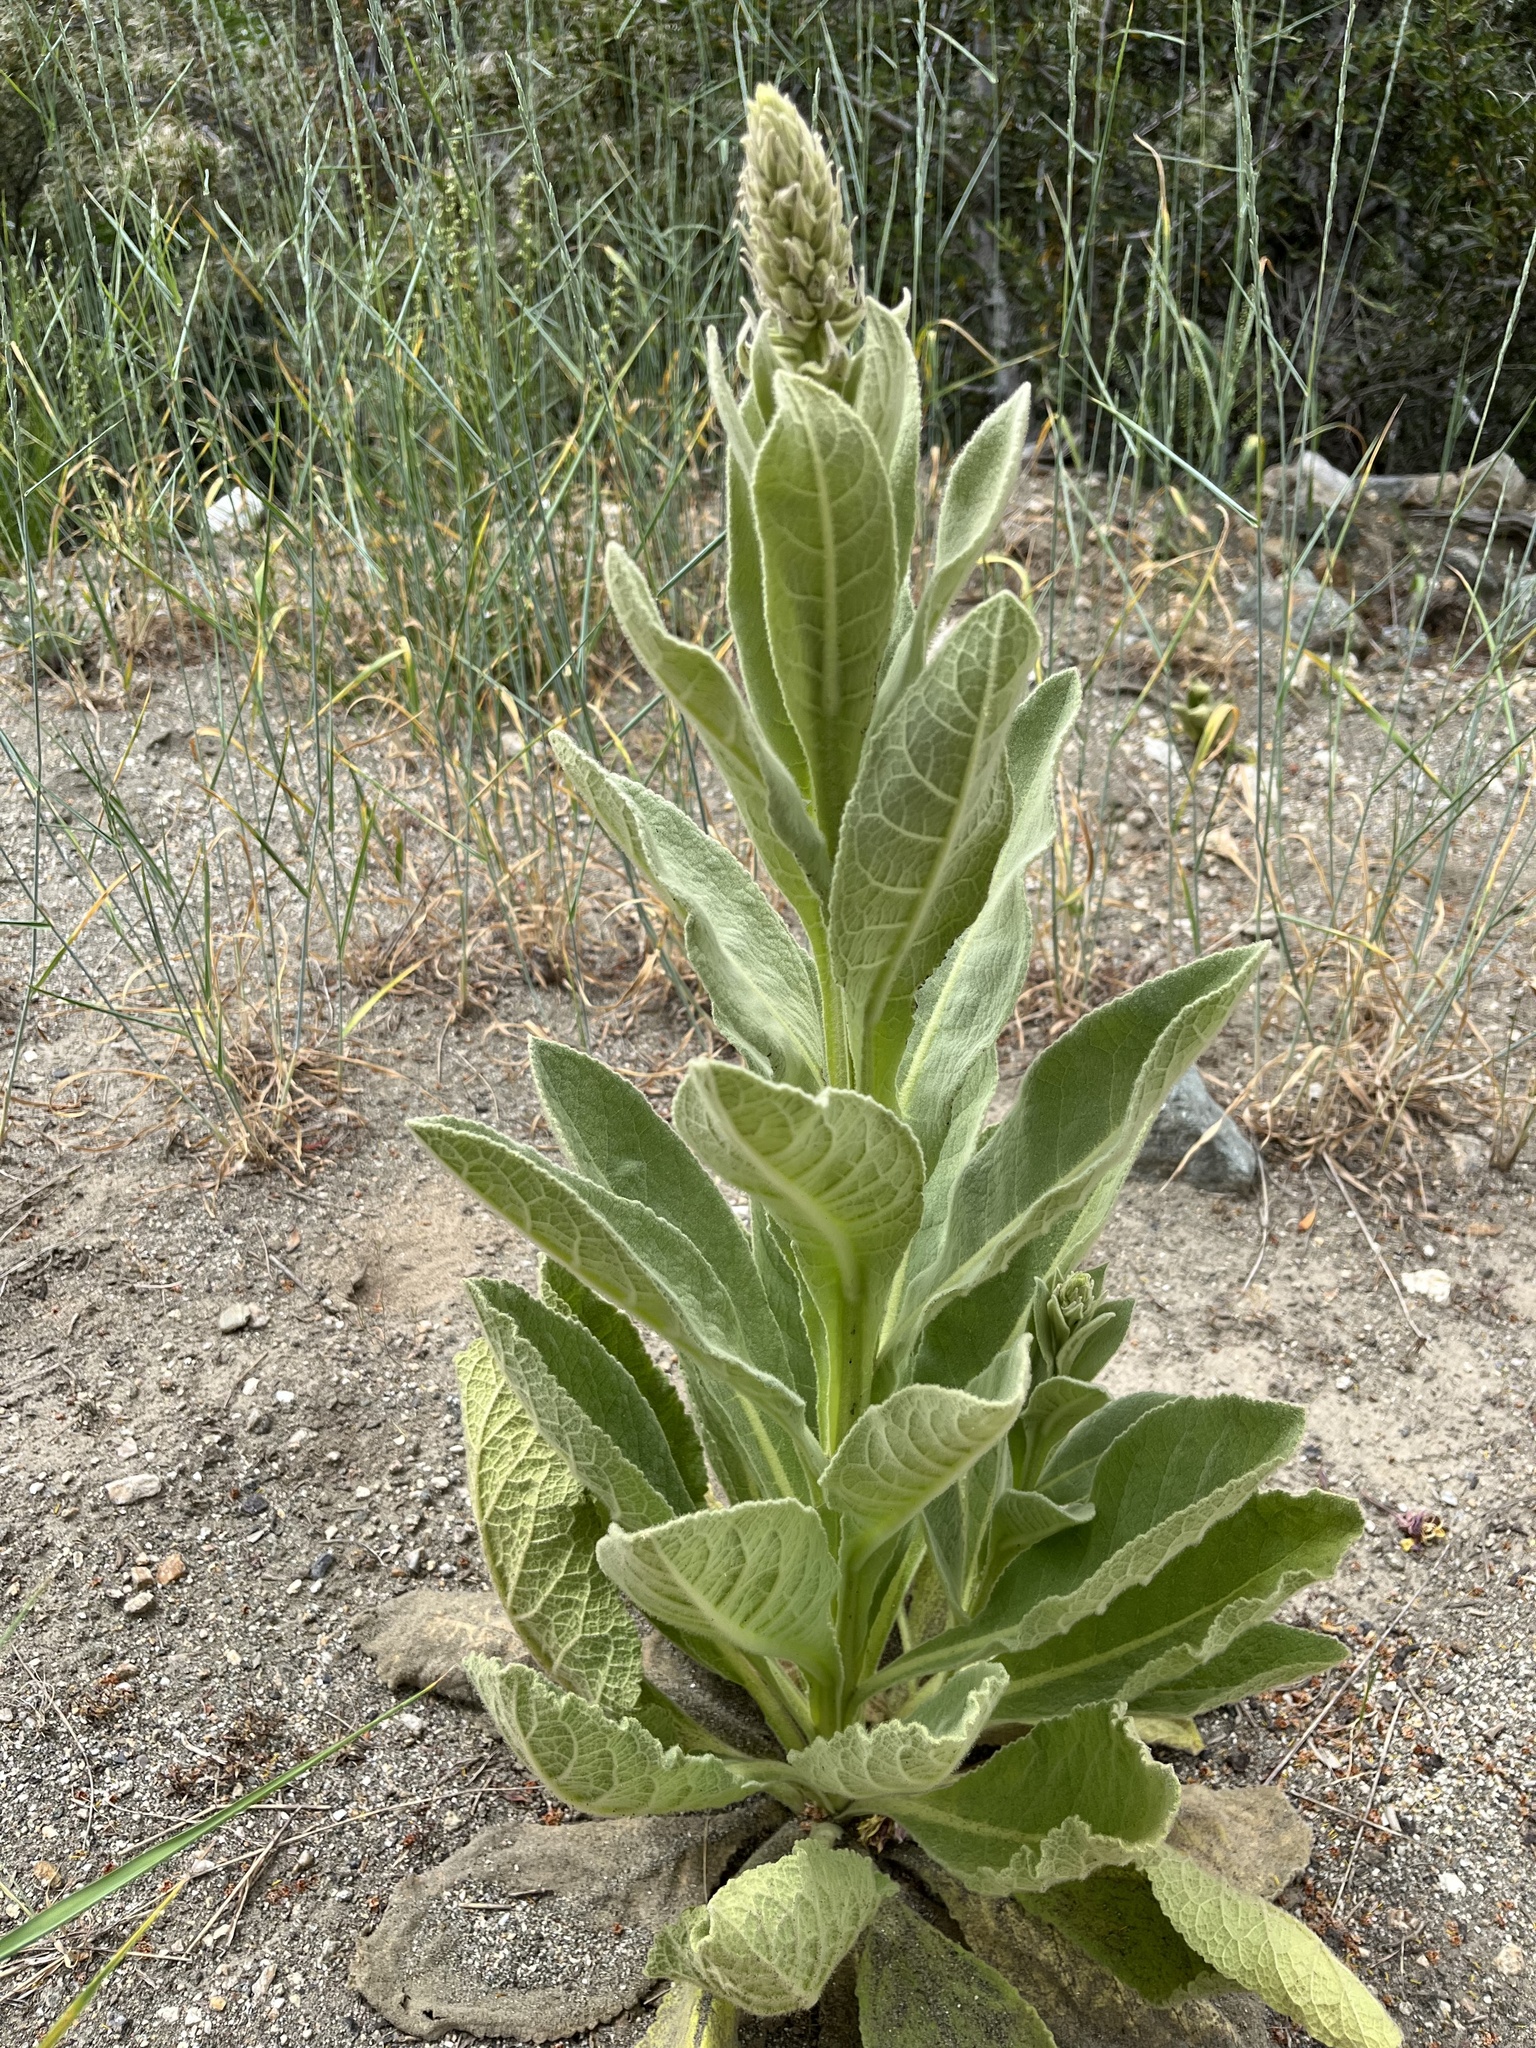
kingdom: Plantae
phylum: Tracheophyta
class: Magnoliopsida
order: Lamiales
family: Scrophulariaceae
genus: Verbascum
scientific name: Verbascum thapsus
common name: Common mullein
